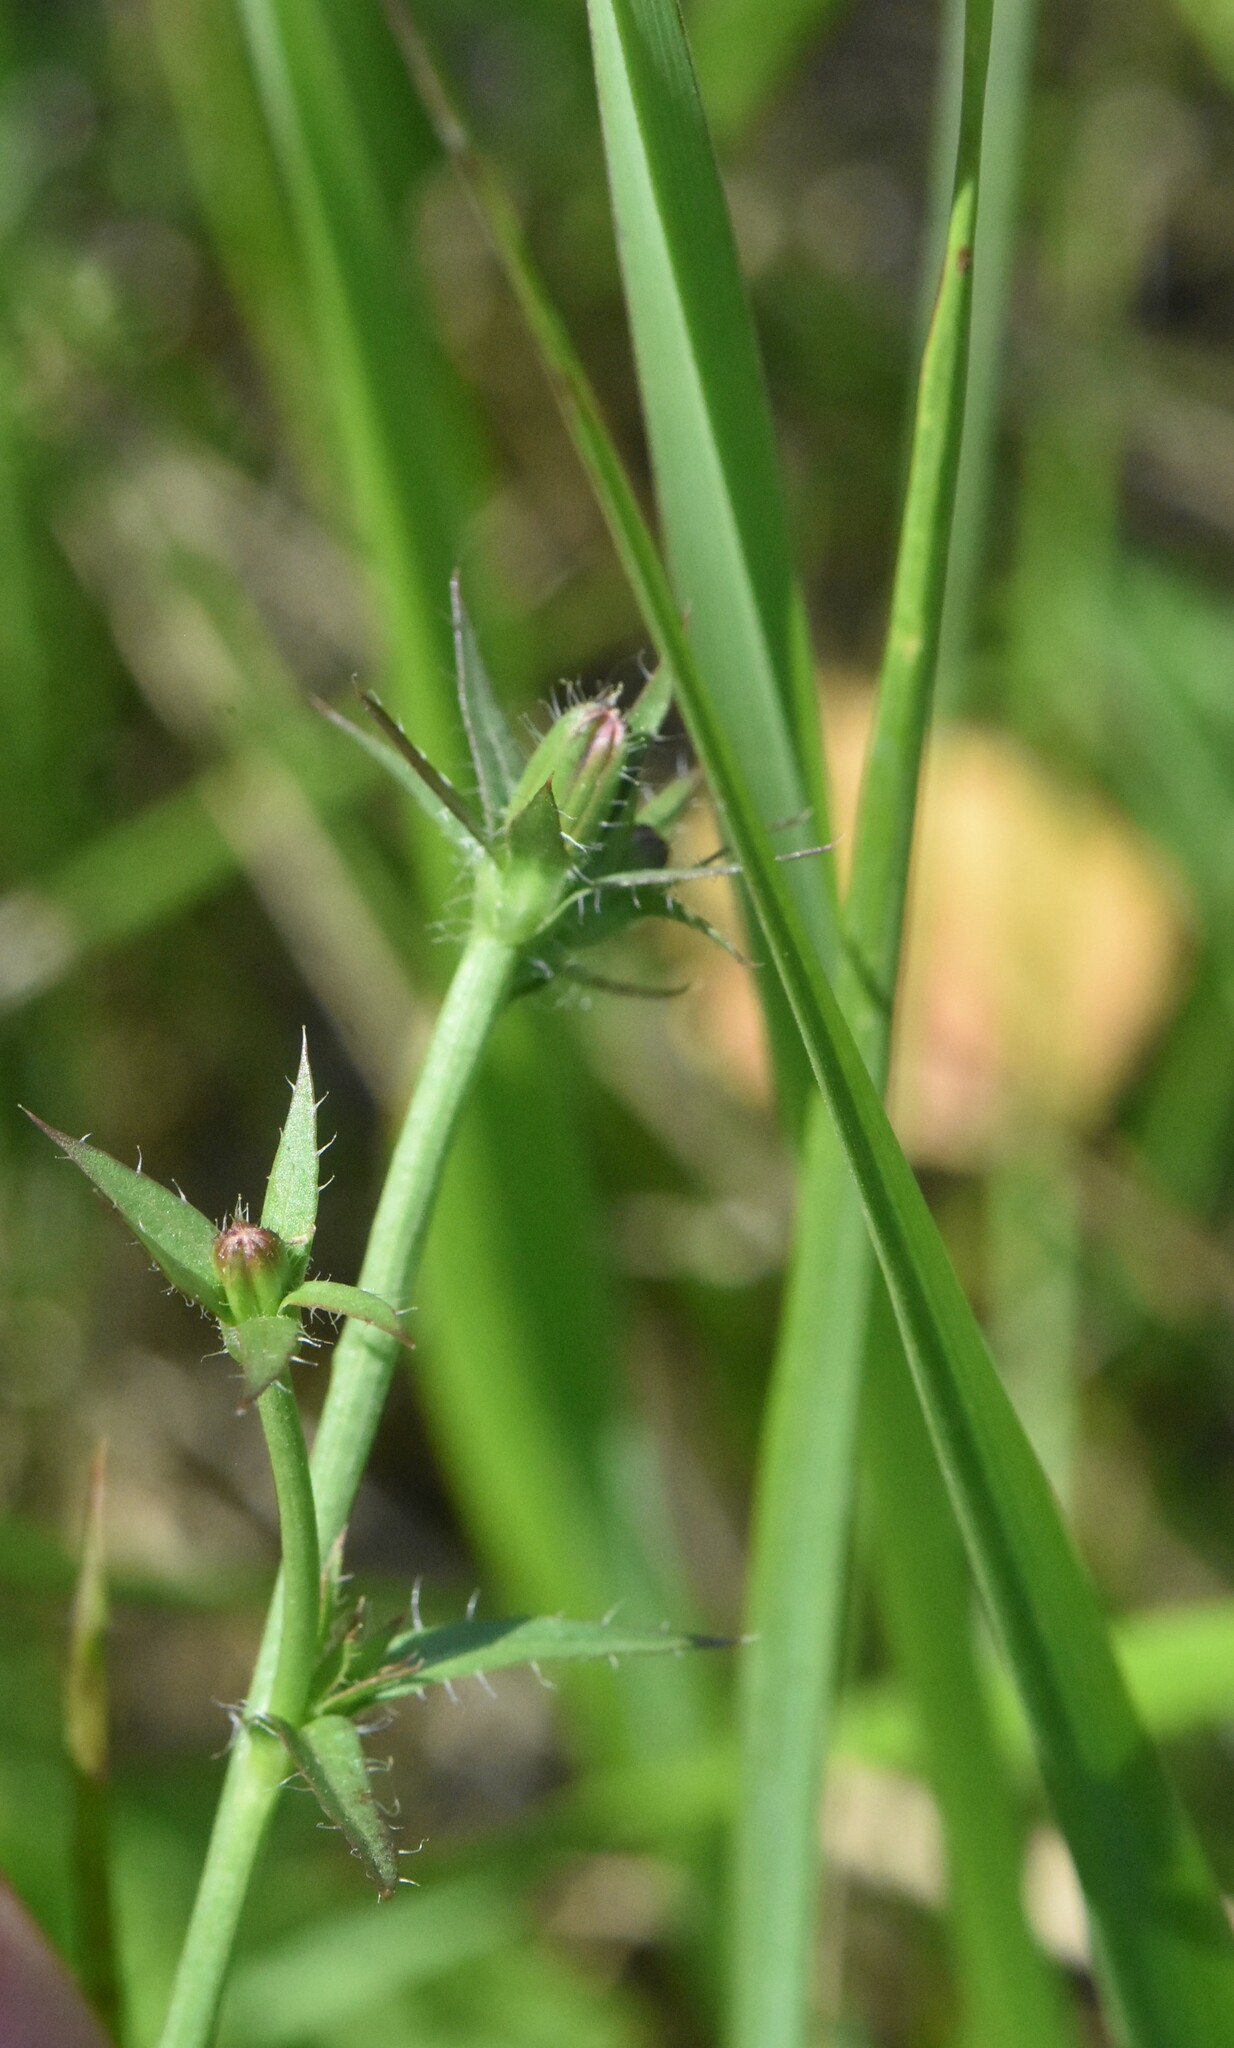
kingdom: Plantae
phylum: Tracheophyta
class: Magnoliopsida
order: Asterales
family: Asteraceae
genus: Picris
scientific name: Picris hieracioides
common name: Hawkweed oxtongue
